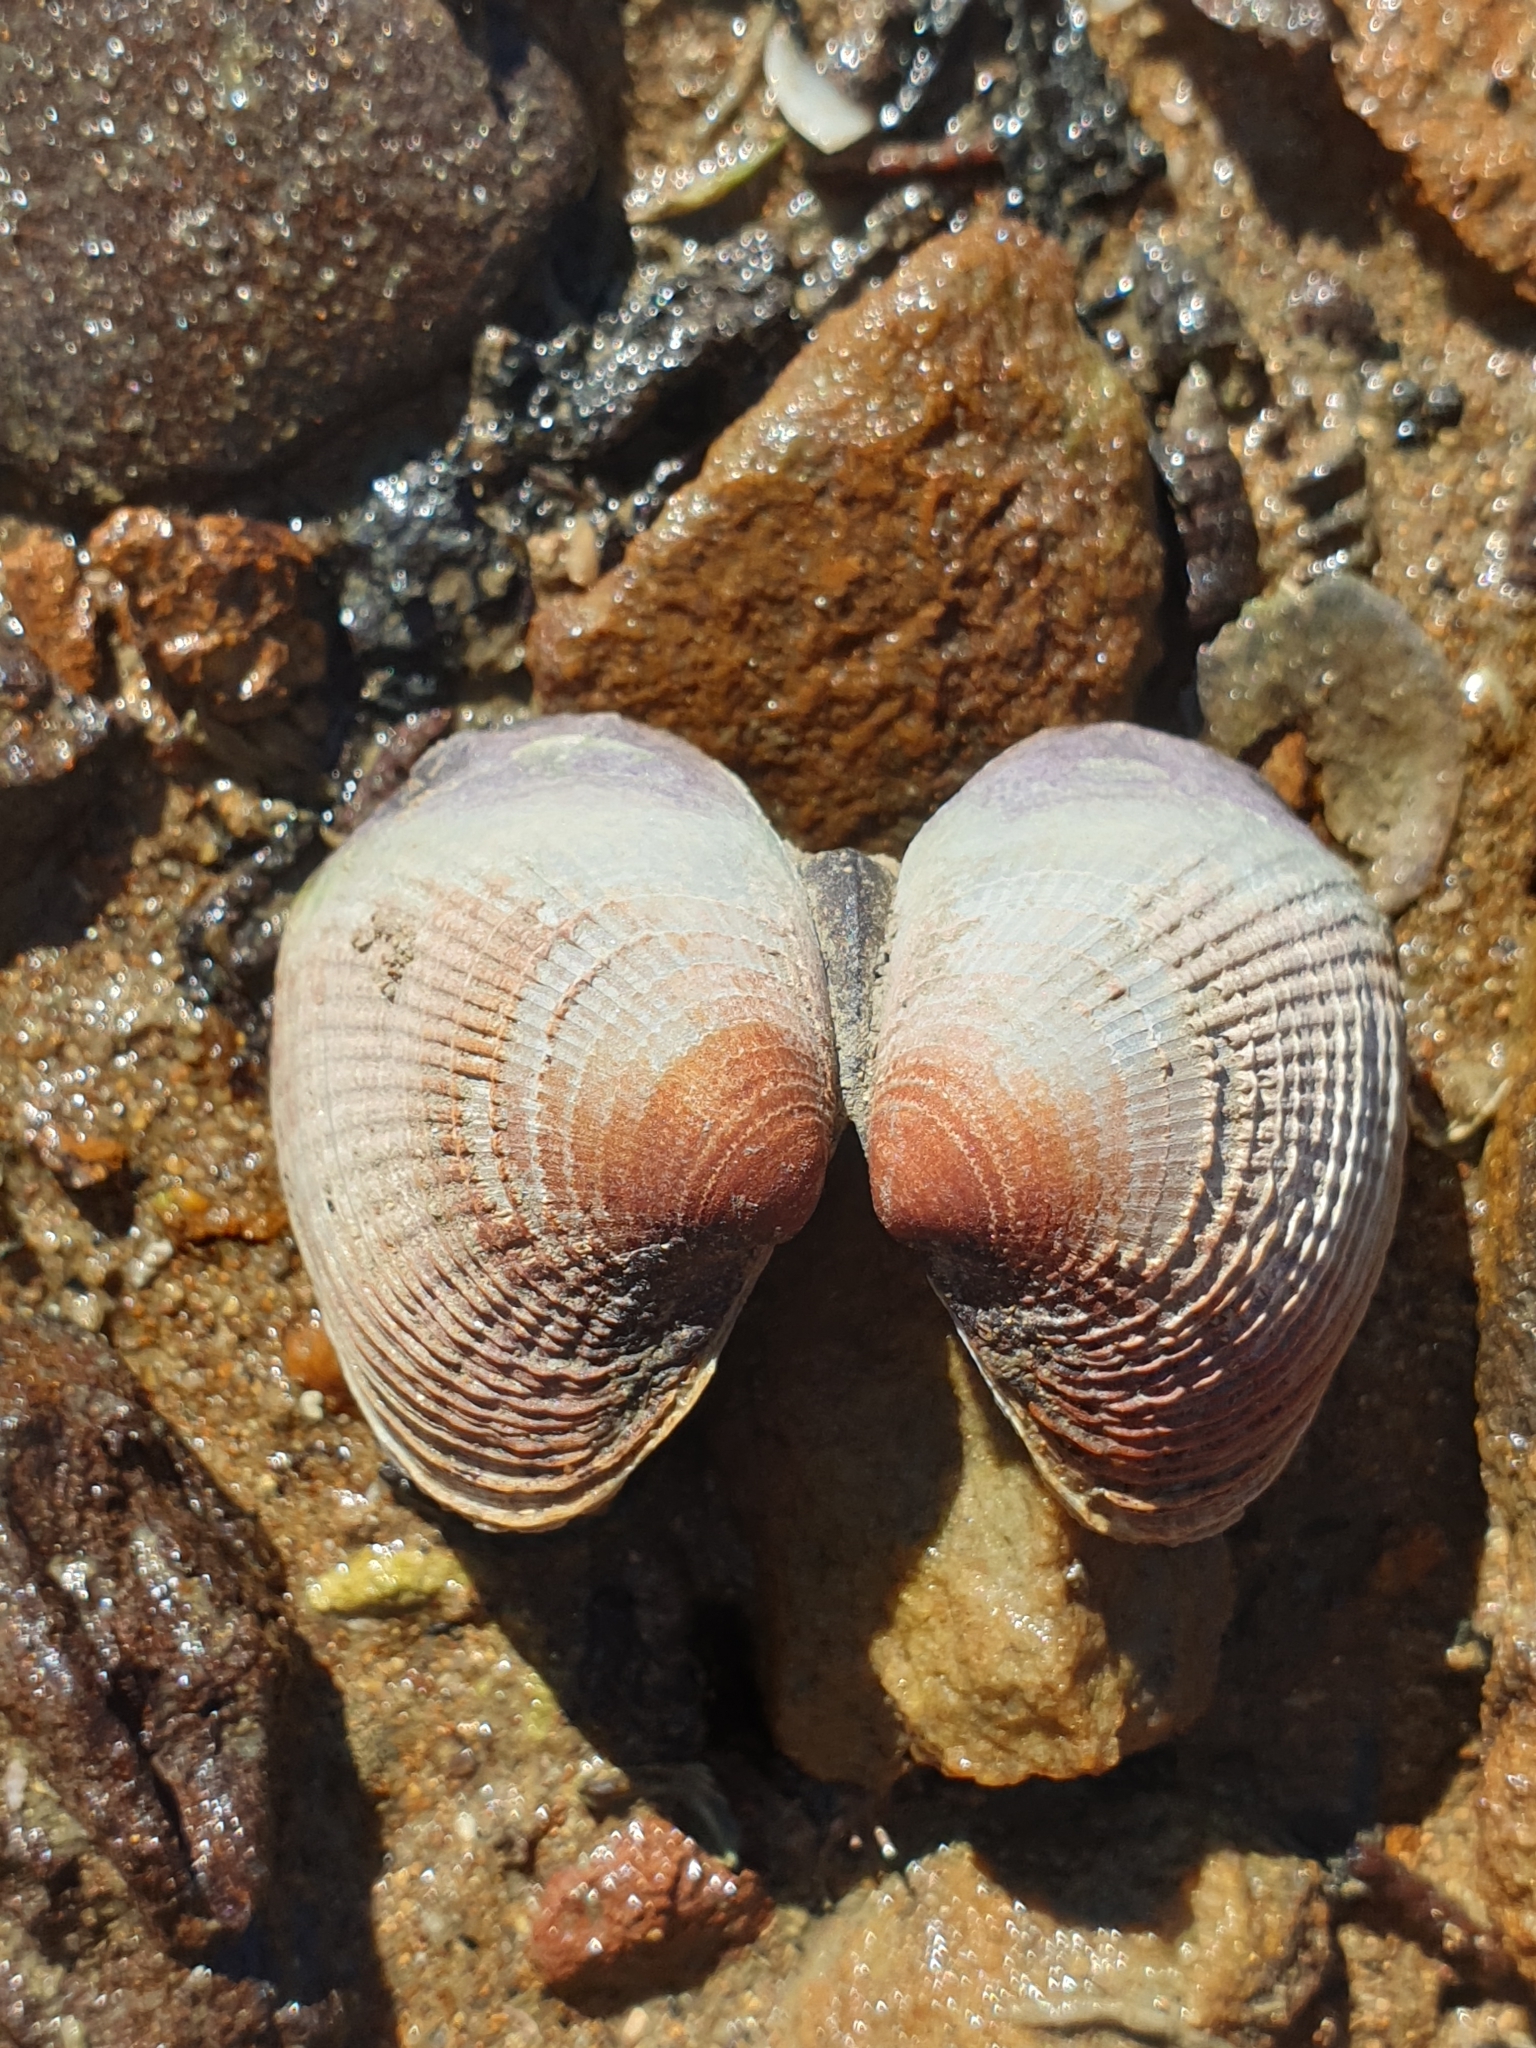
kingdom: Animalia
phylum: Mollusca
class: Bivalvia
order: Venerida
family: Veneridae
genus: Austrovenus
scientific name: Austrovenus stutchburyi
